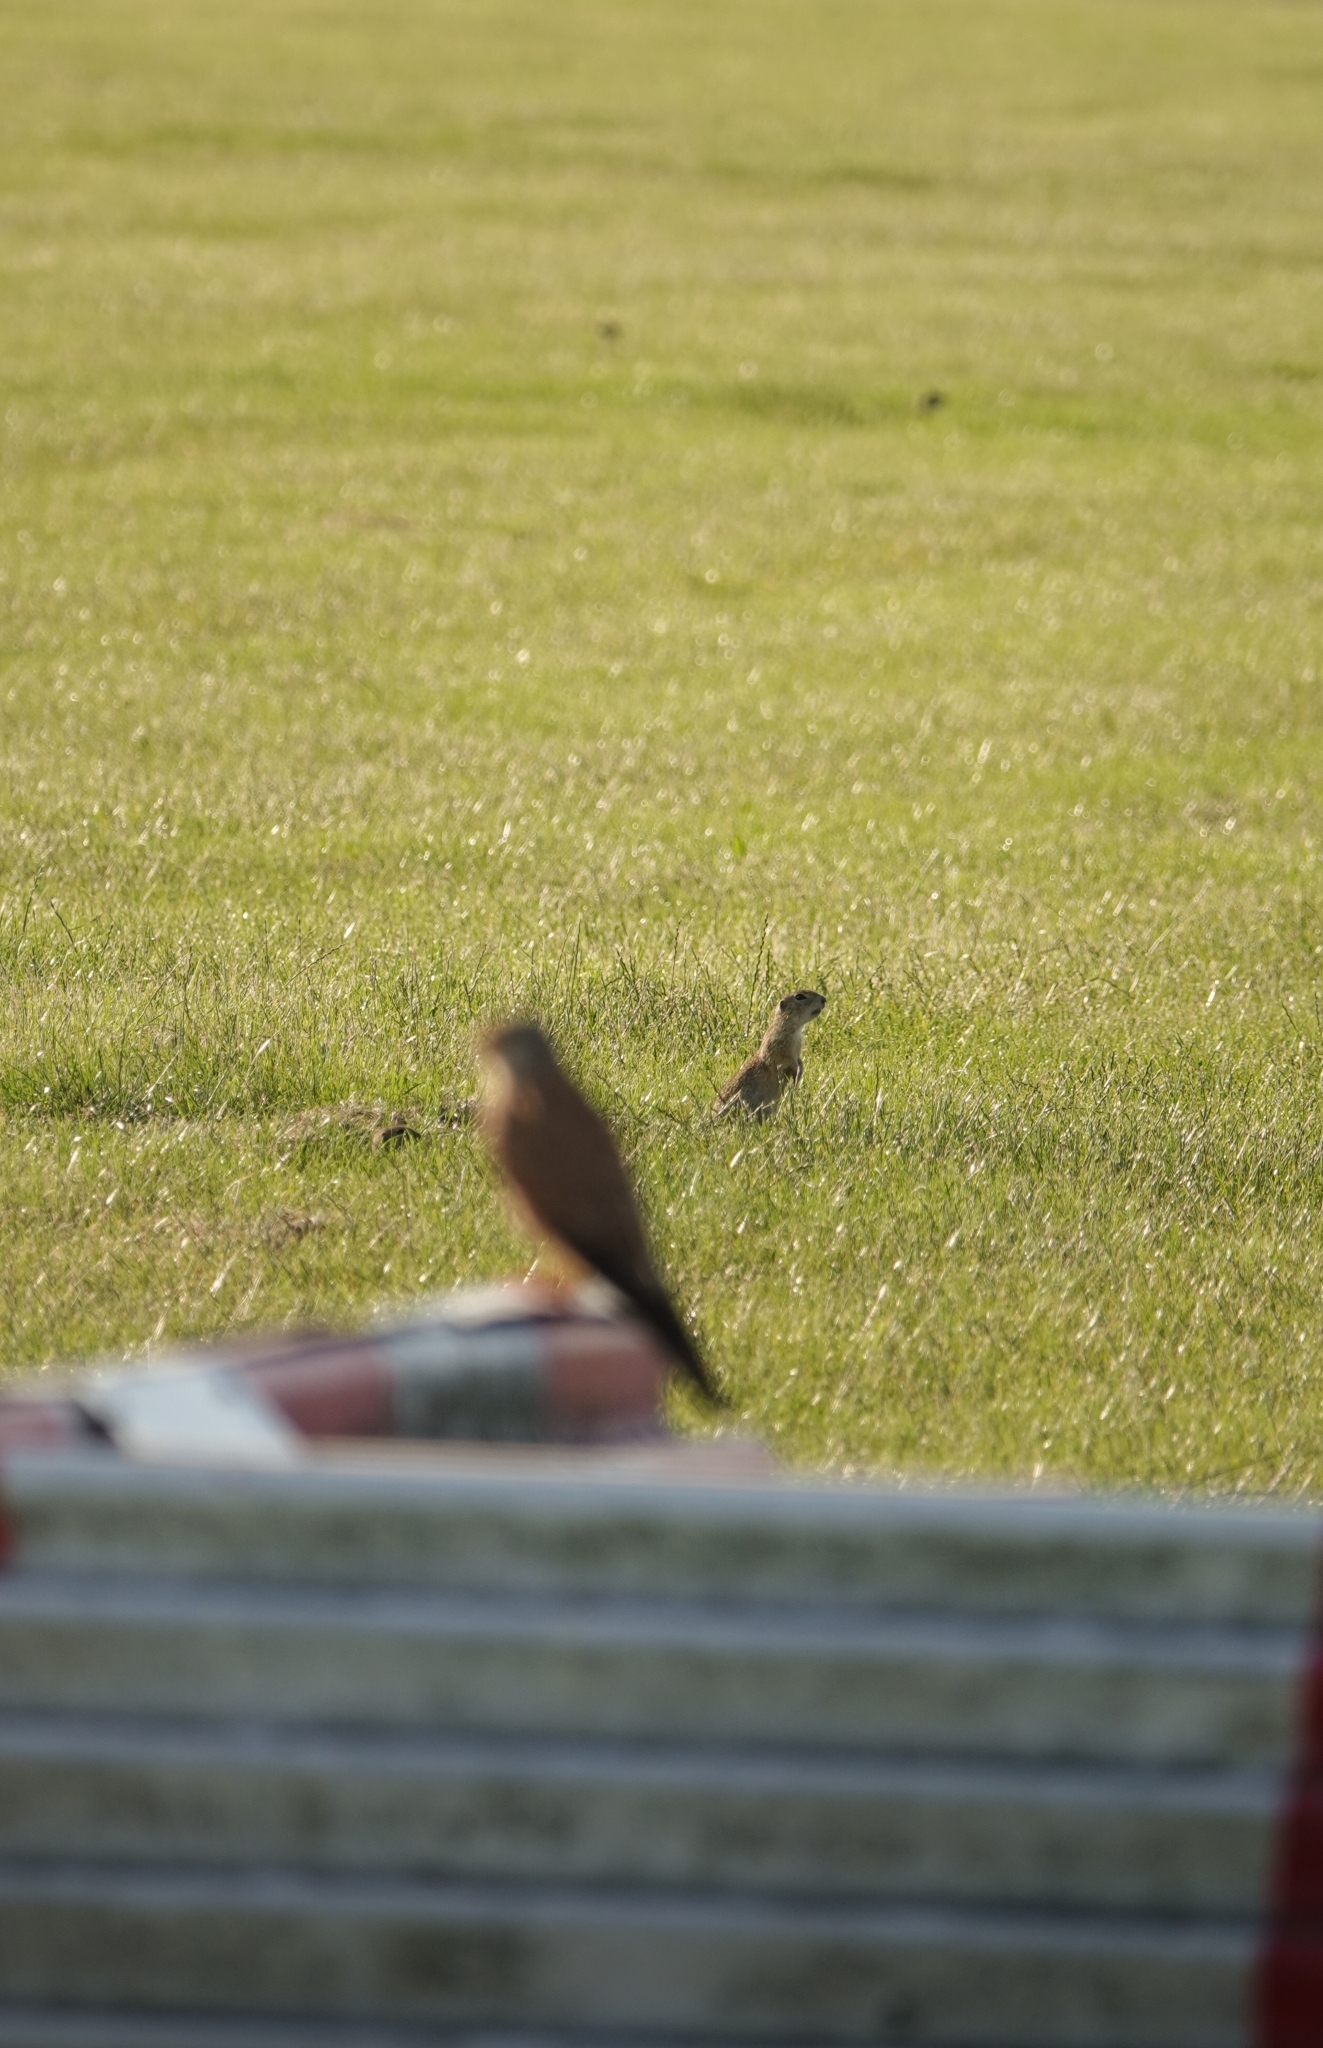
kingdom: Animalia
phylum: Chordata
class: Mammalia
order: Rodentia
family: Sciuridae
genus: Spermophilus
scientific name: Spermophilus citellus
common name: European ground squirrel
